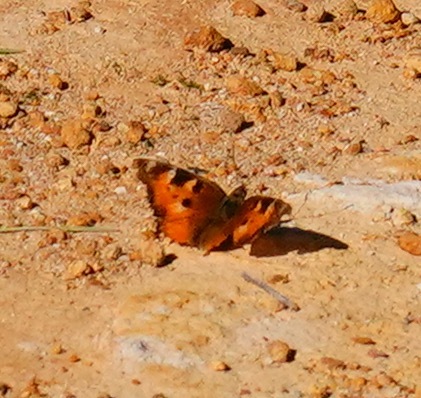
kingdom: Animalia
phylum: Arthropoda
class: Insecta
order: Lepidoptera
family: Nymphalidae
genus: Nymphalis
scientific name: Nymphalis californica
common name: California tortoiseshell
